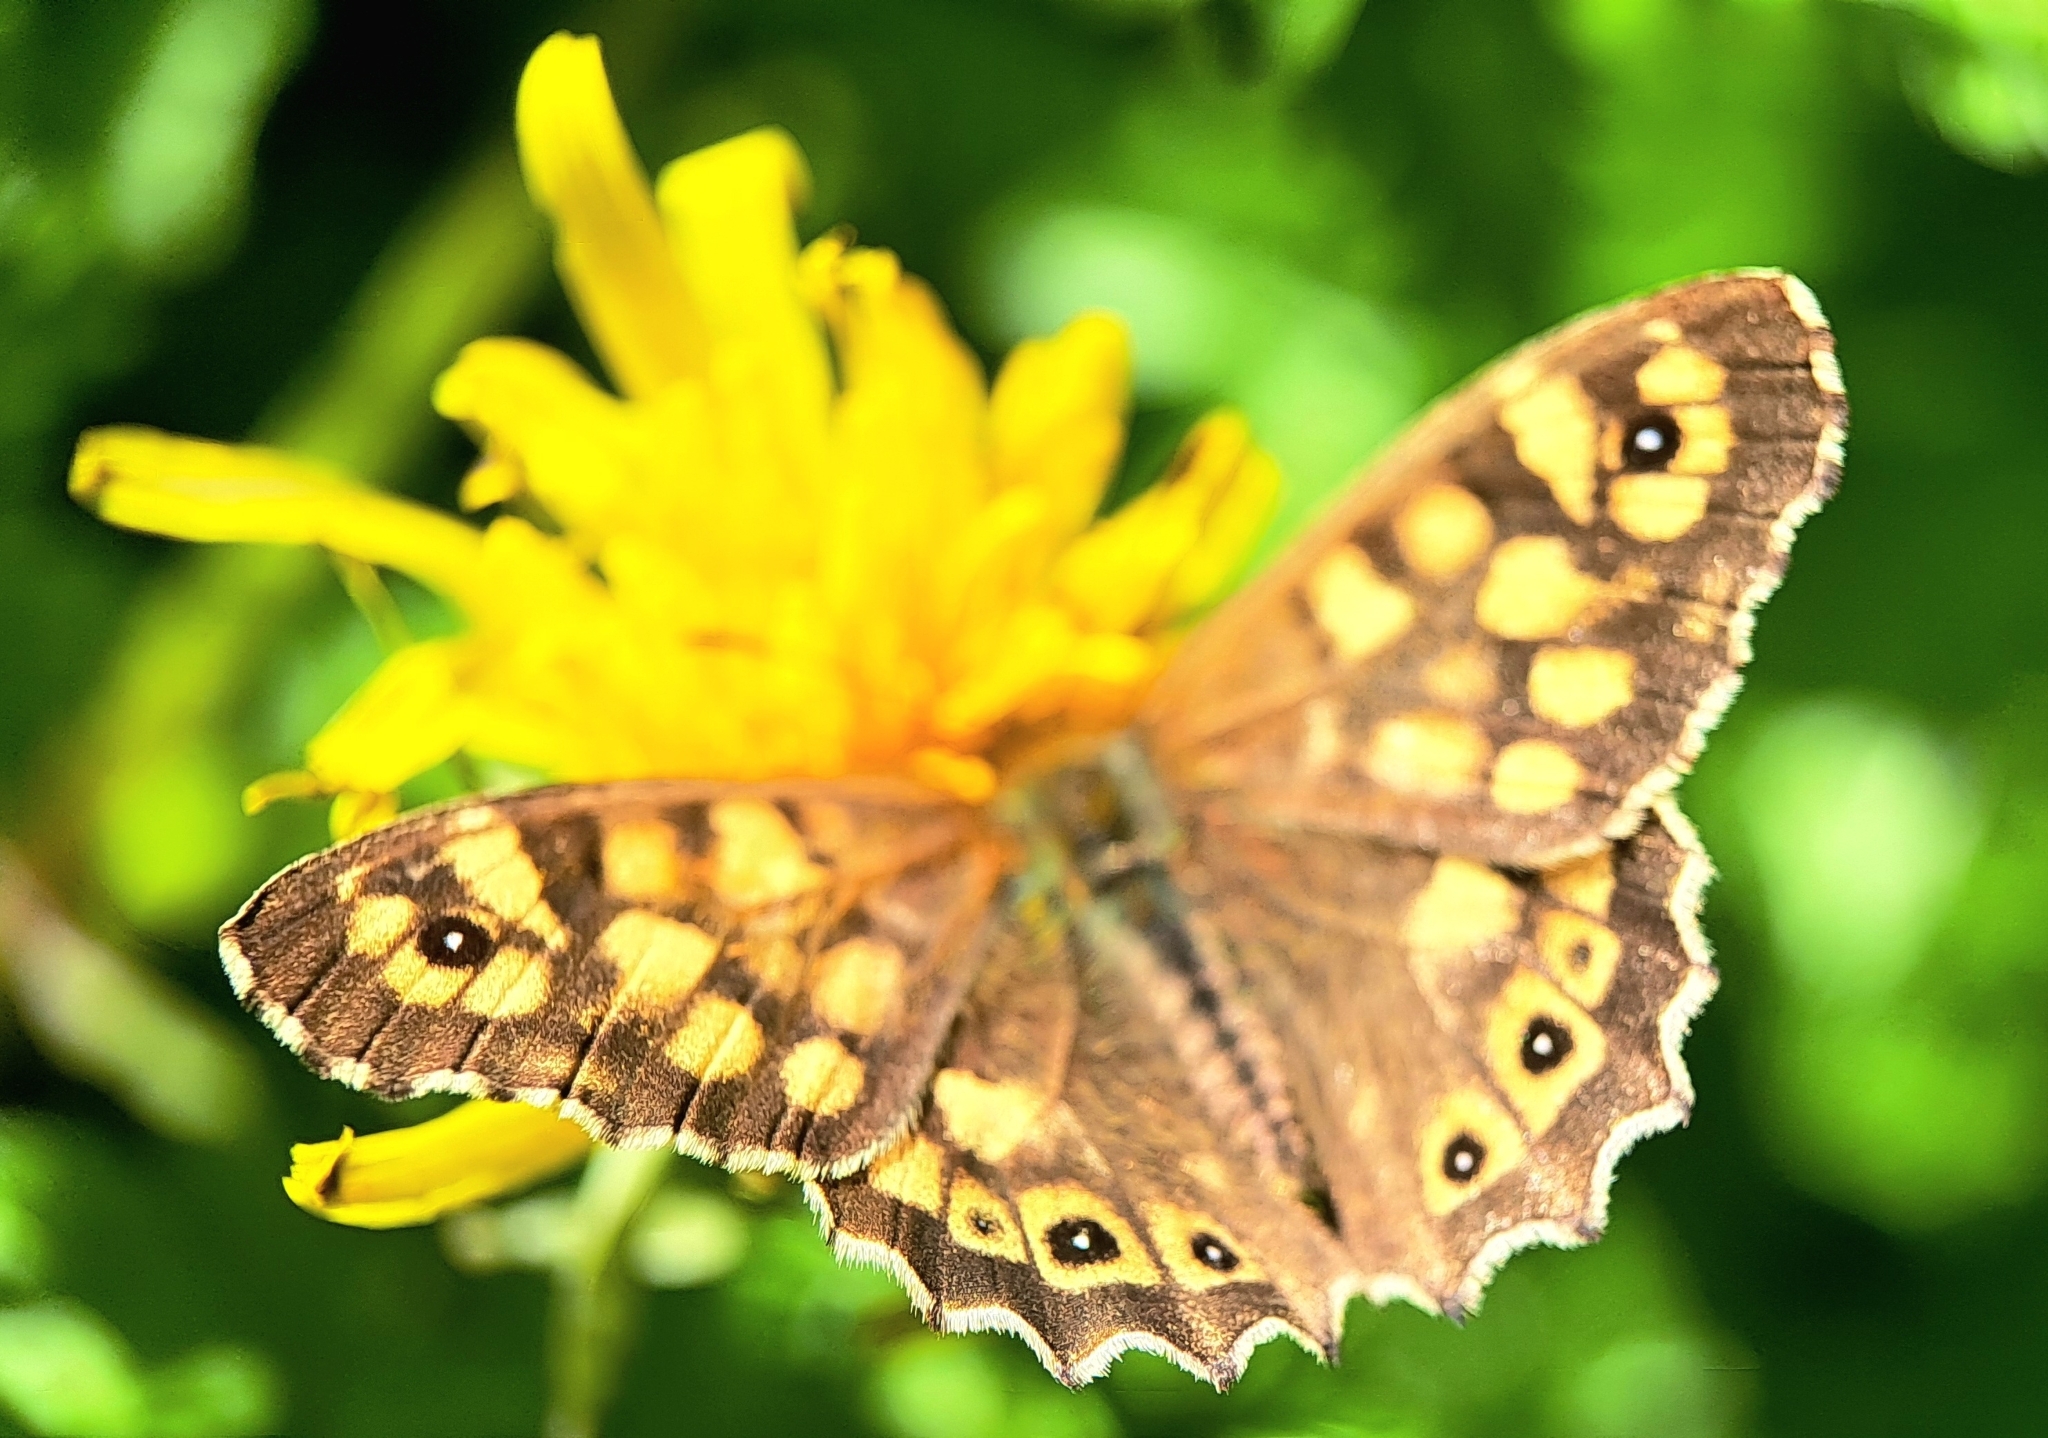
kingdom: Animalia
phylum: Arthropoda
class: Insecta
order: Lepidoptera
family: Nymphalidae
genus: Pararge
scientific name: Pararge aegeria
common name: Speckled wood
